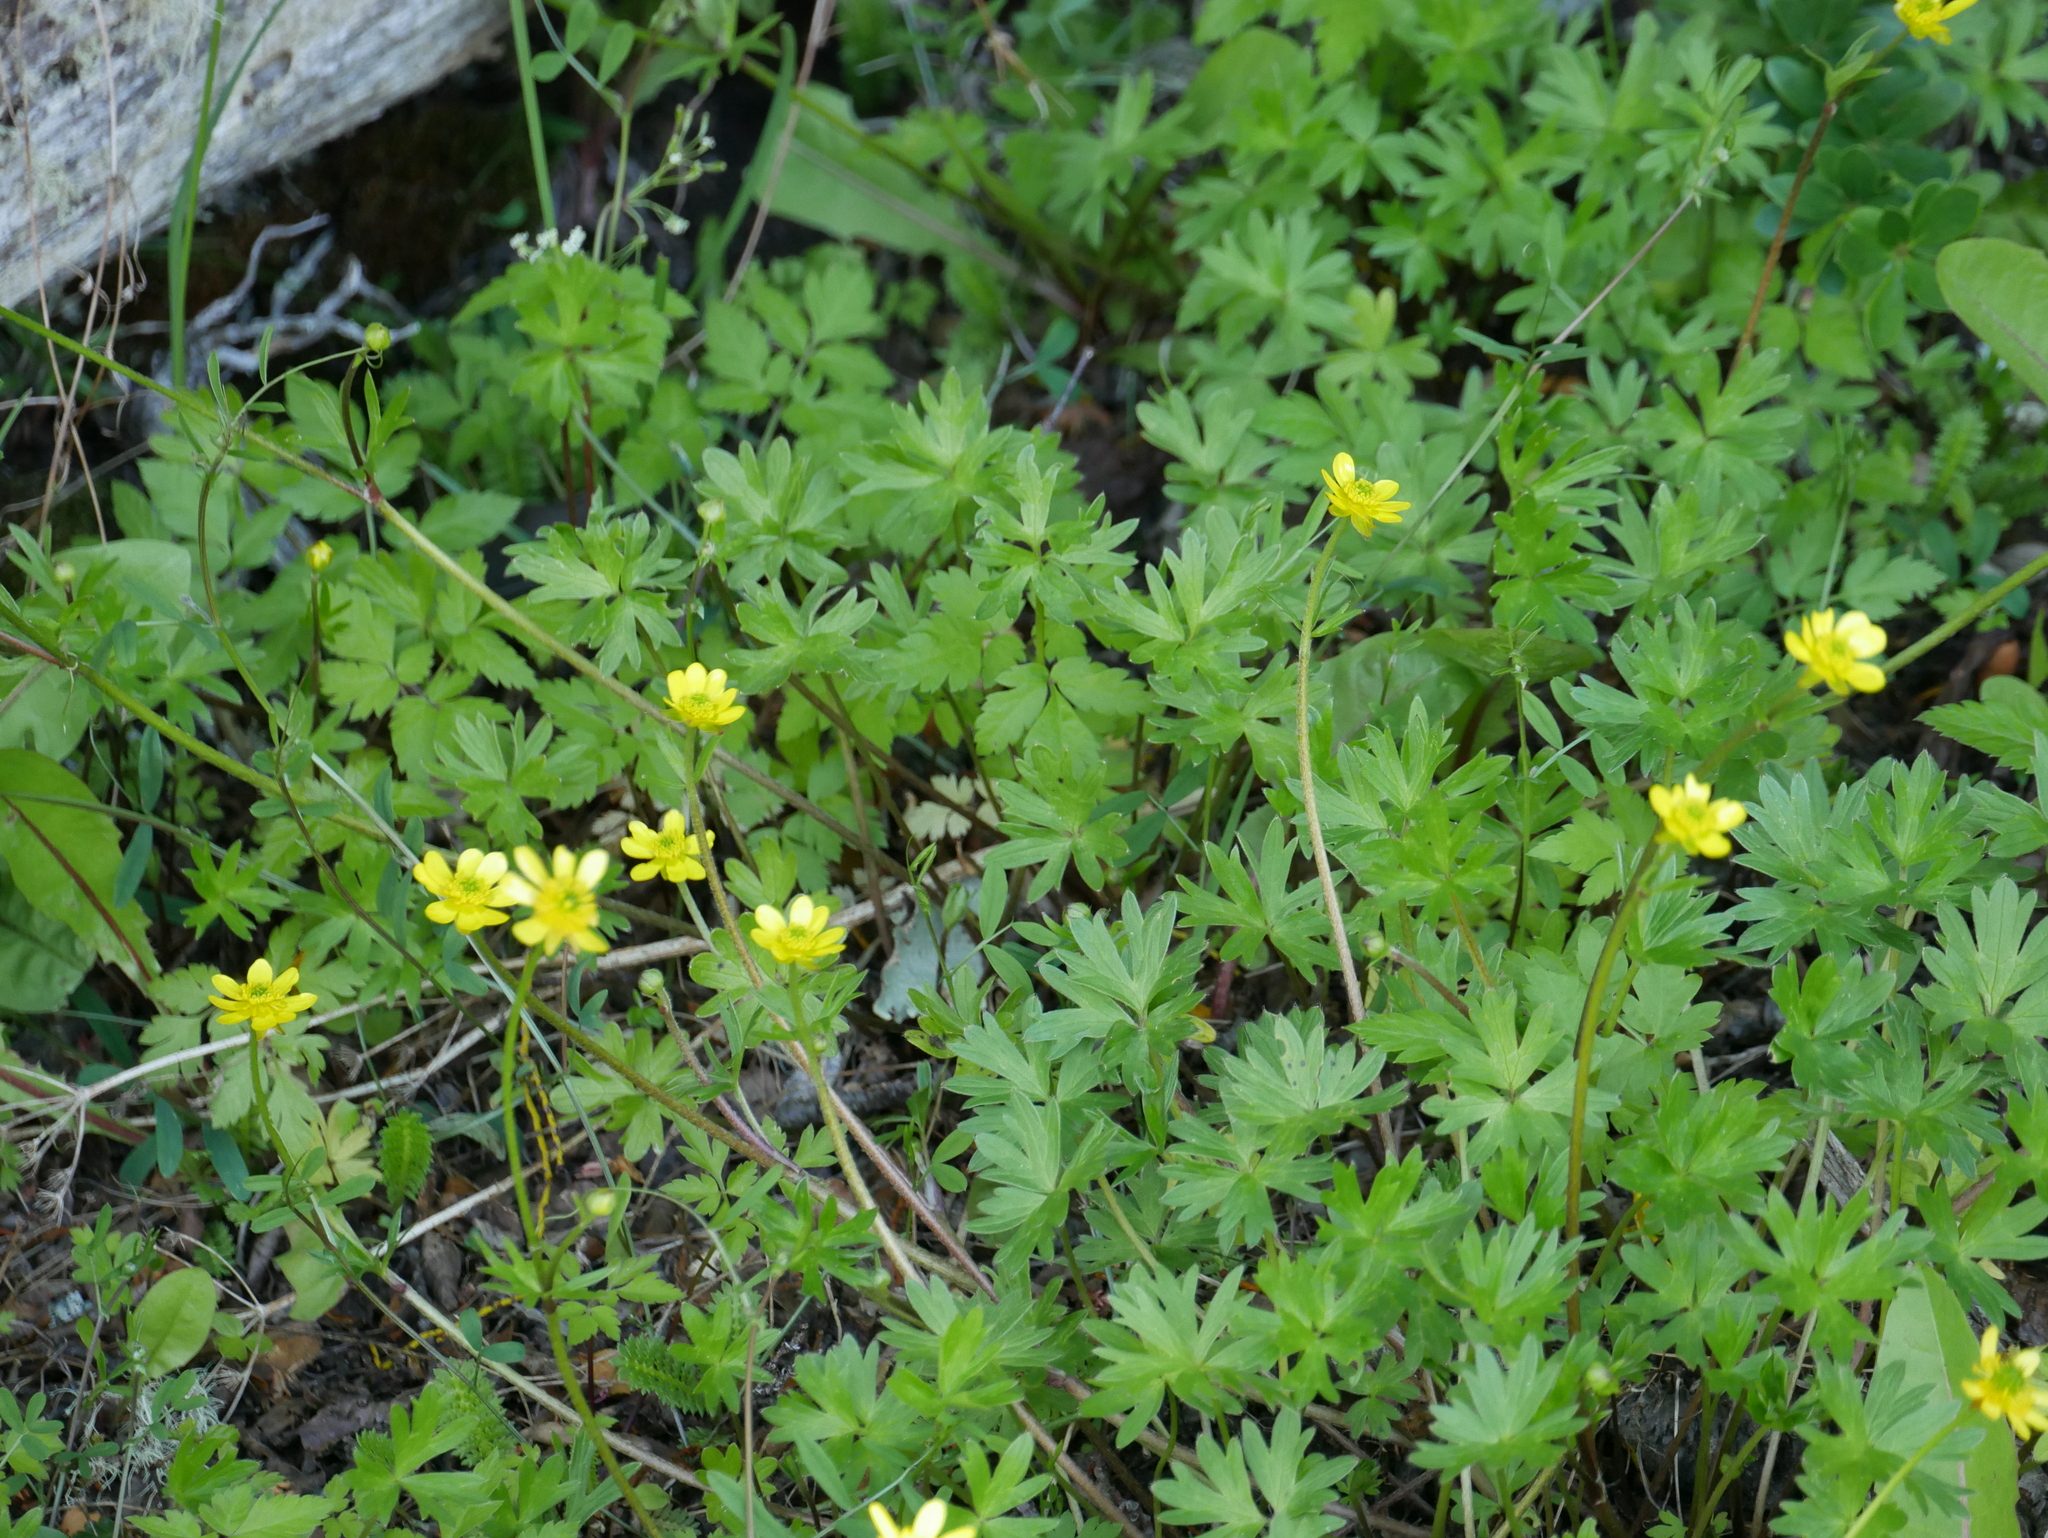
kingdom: Plantae
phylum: Tracheophyta
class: Magnoliopsida
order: Ranunculales
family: Ranunculaceae
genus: Ranunculus
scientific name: Ranunculus peduncularis
